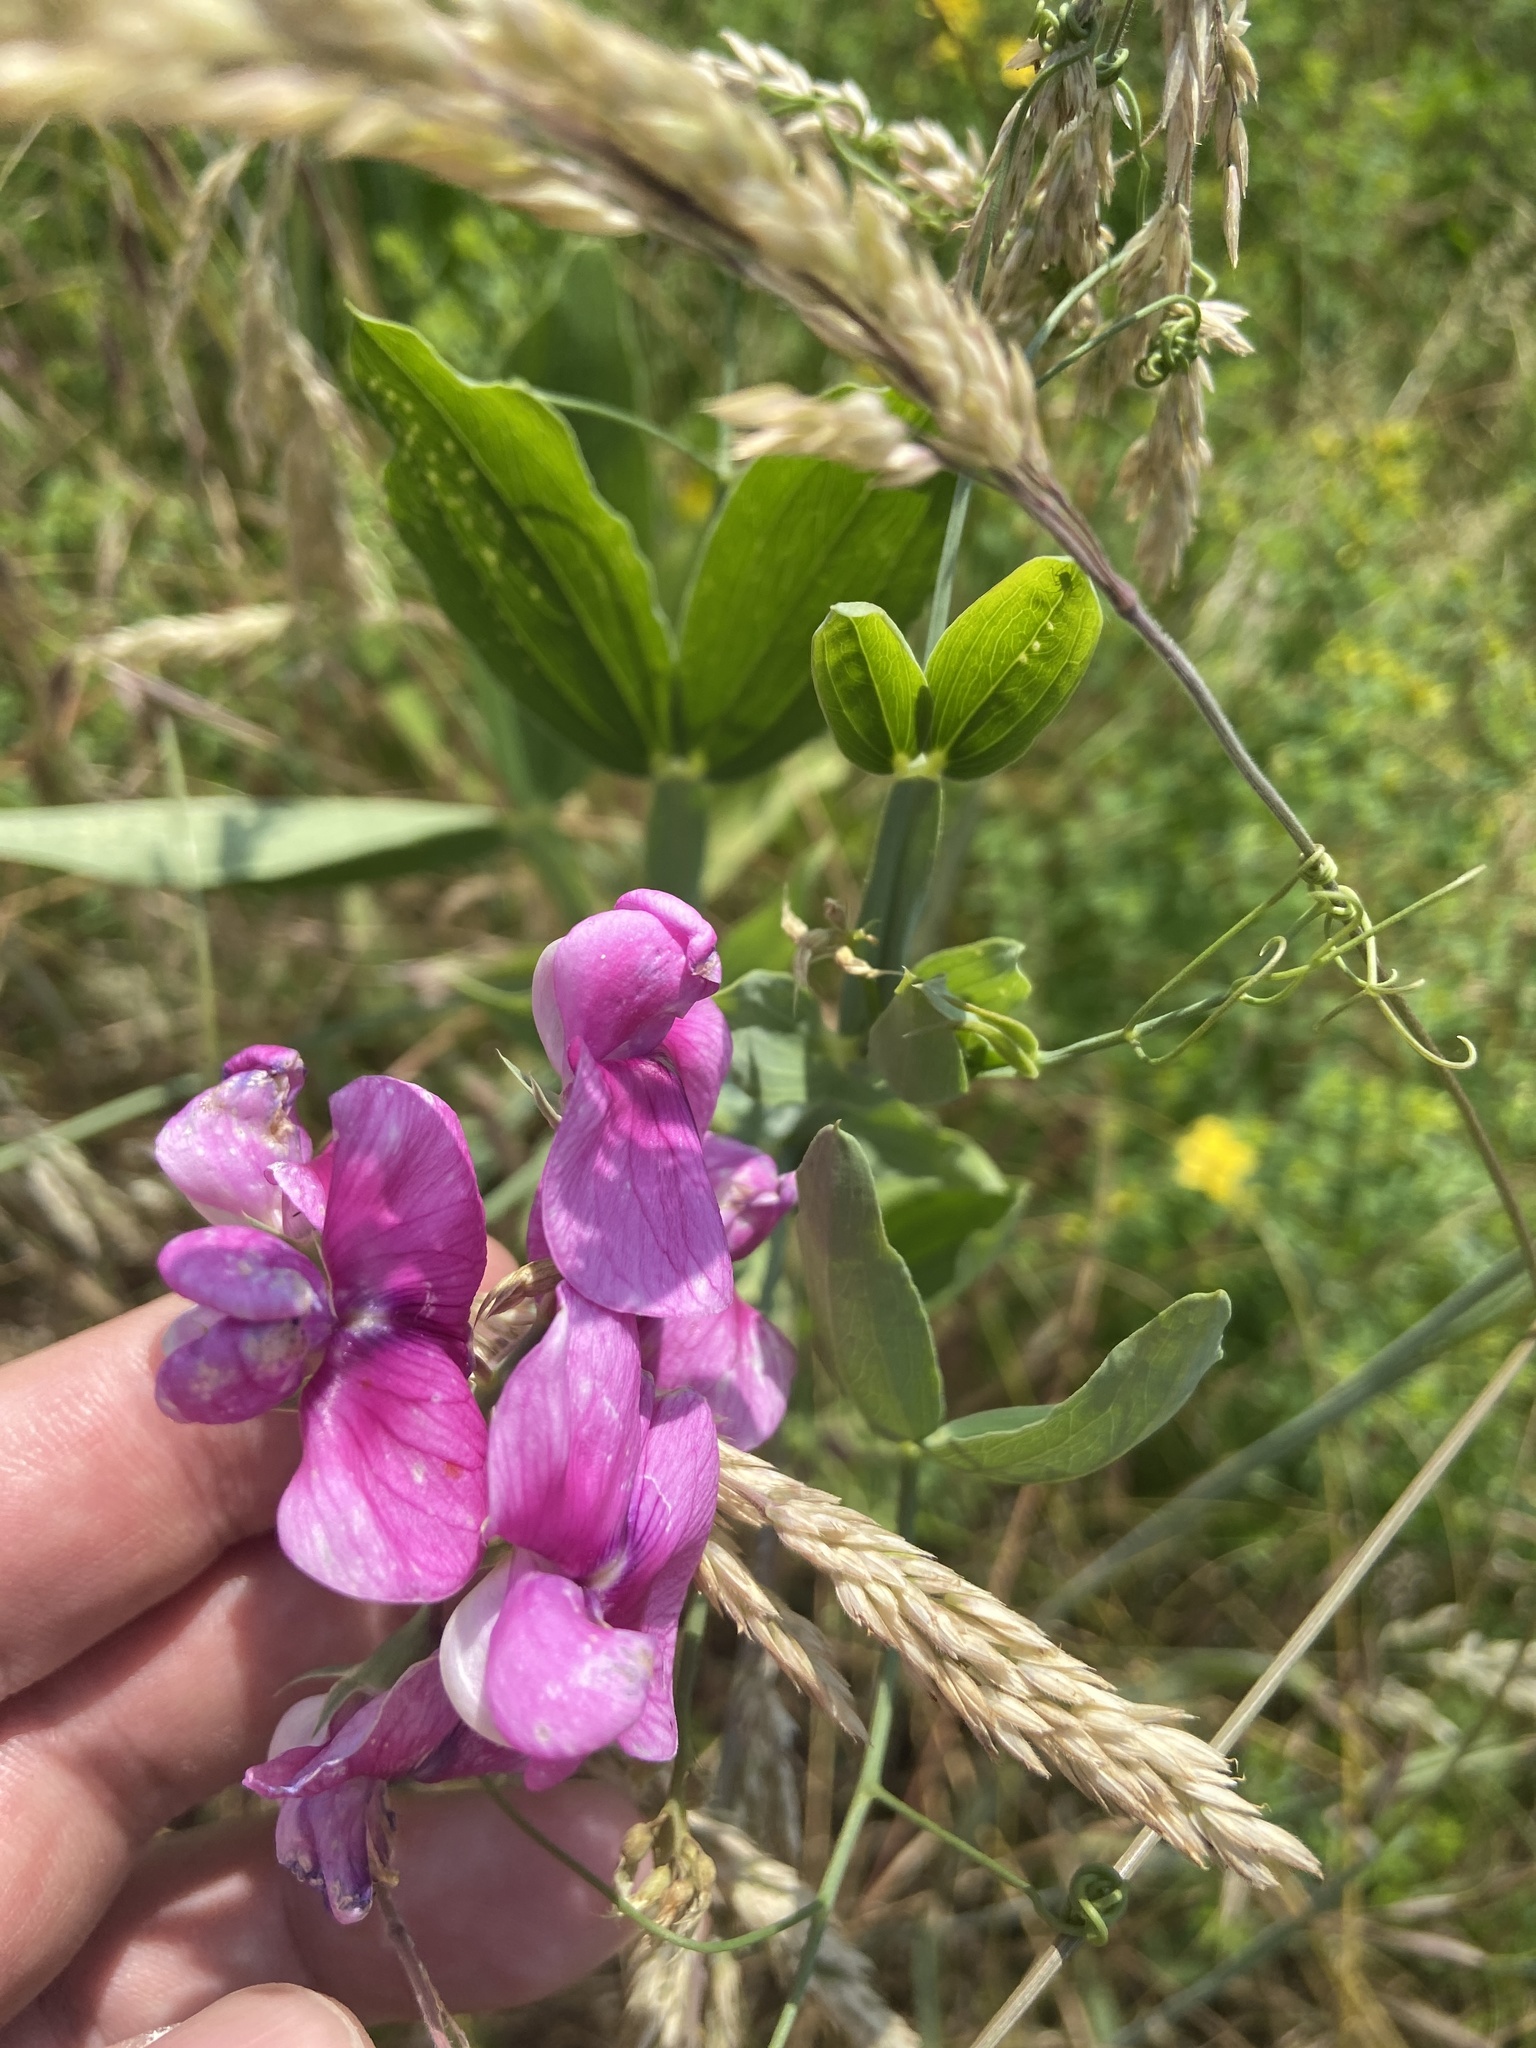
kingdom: Plantae
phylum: Tracheophyta
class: Magnoliopsida
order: Fabales
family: Fabaceae
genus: Lathyrus
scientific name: Lathyrus latifolius
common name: Perennial pea
